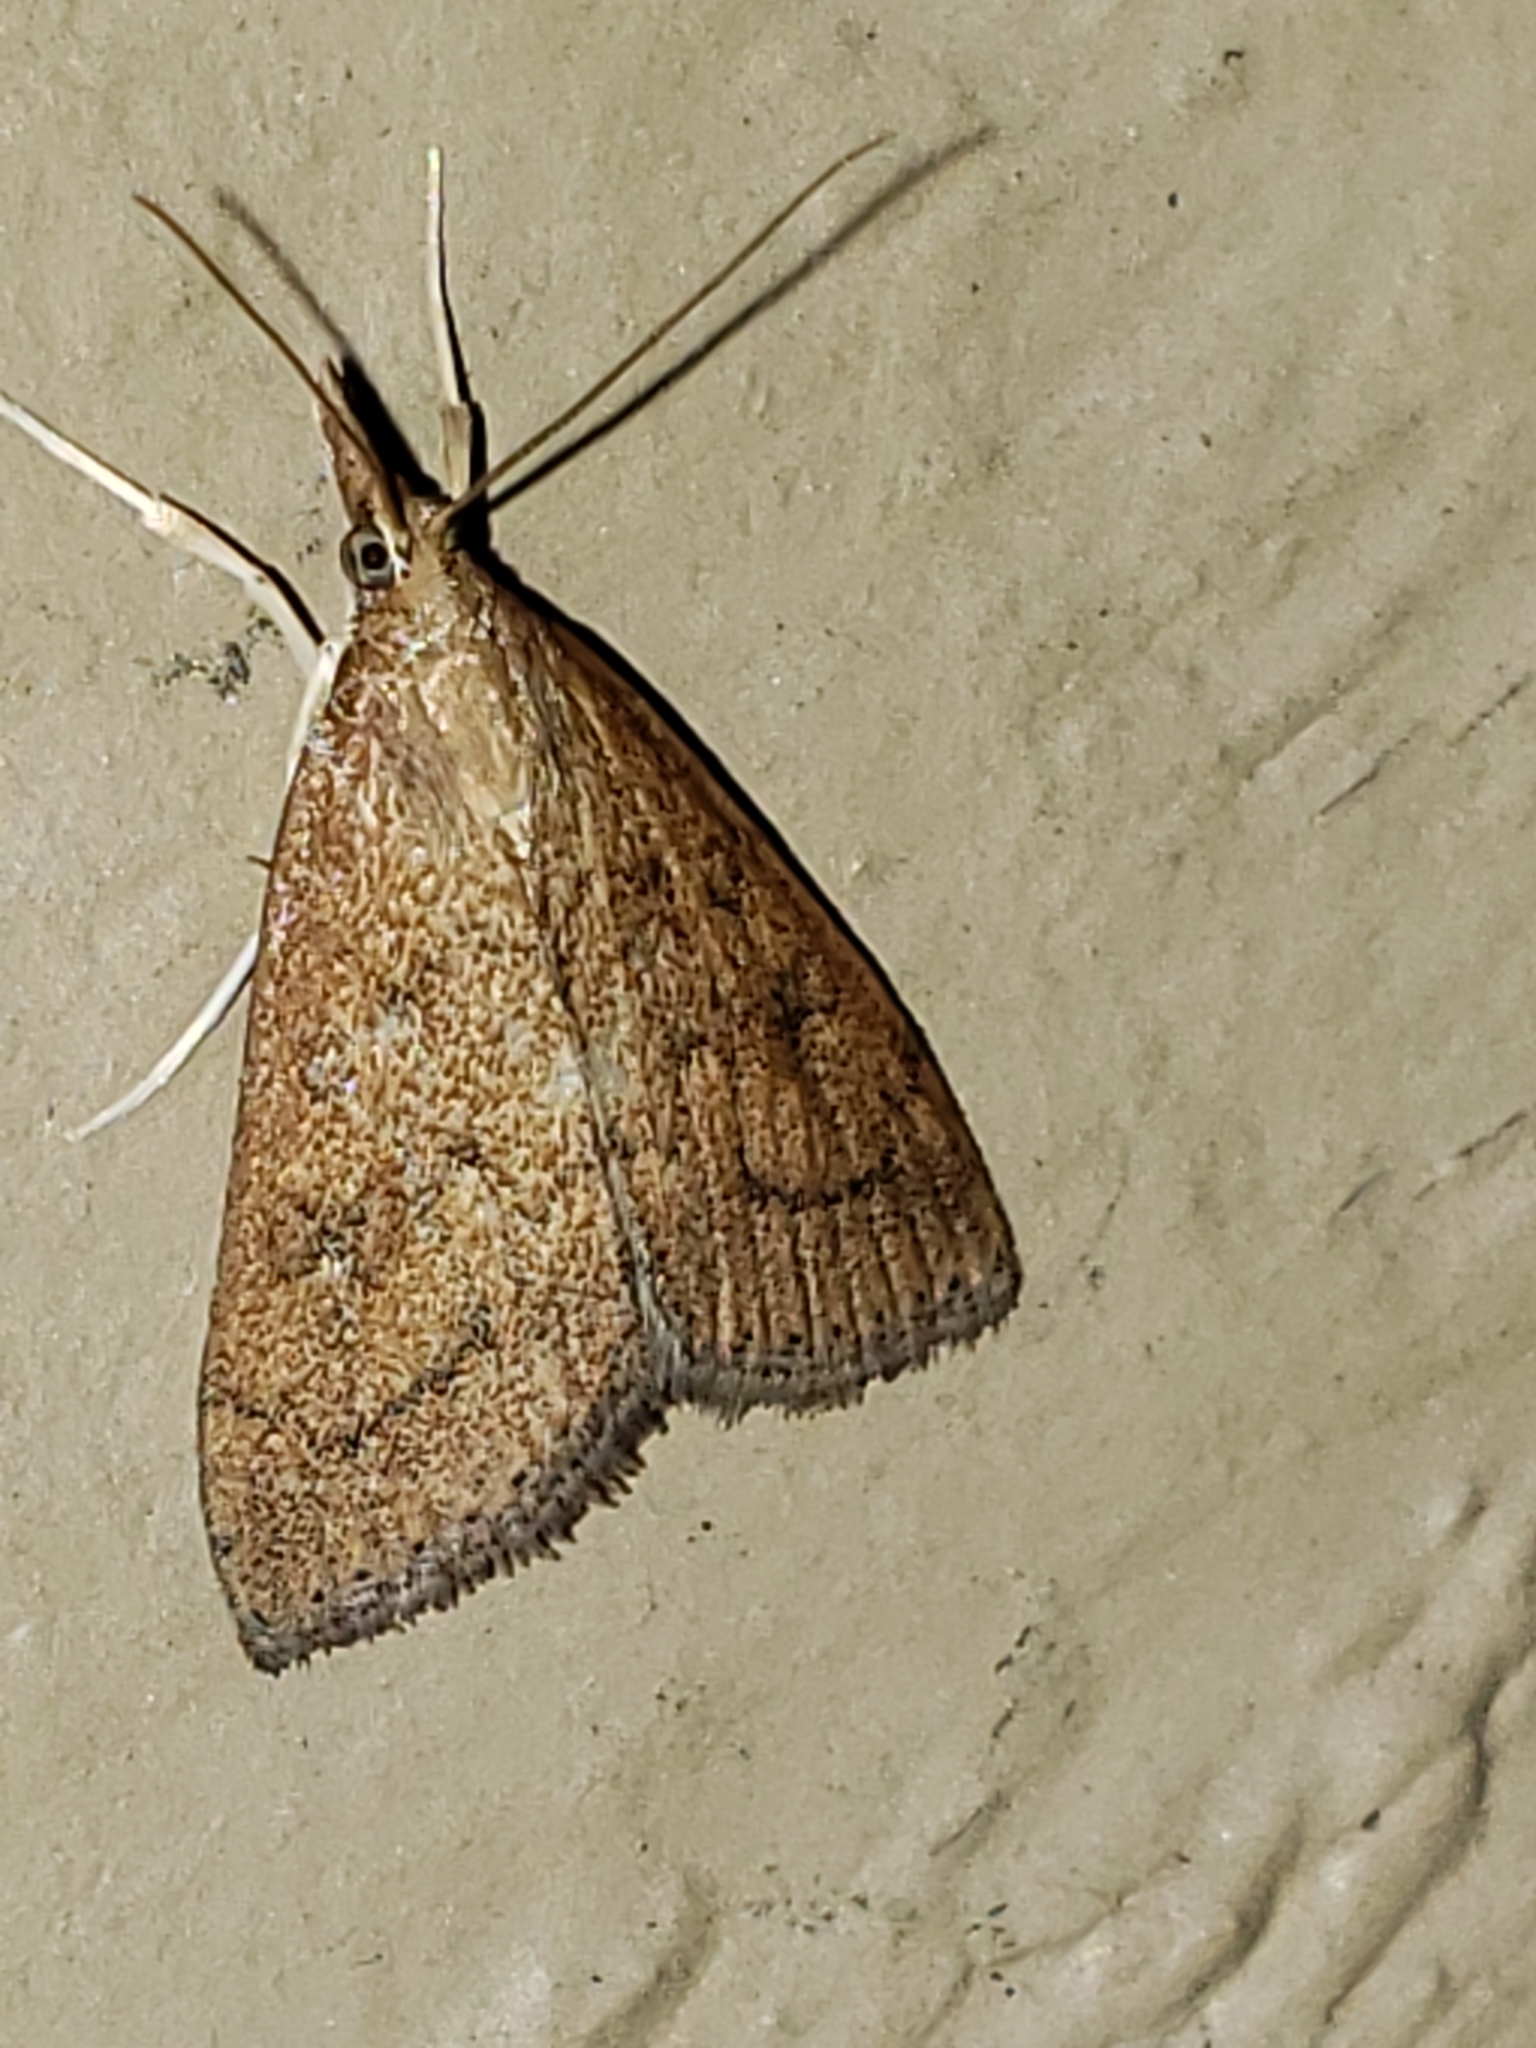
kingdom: Animalia
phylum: Arthropoda
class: Insecta
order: Lepidoptera
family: Crambidae
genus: Udea
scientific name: Udea rubigalis
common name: Celery leaftier moth
